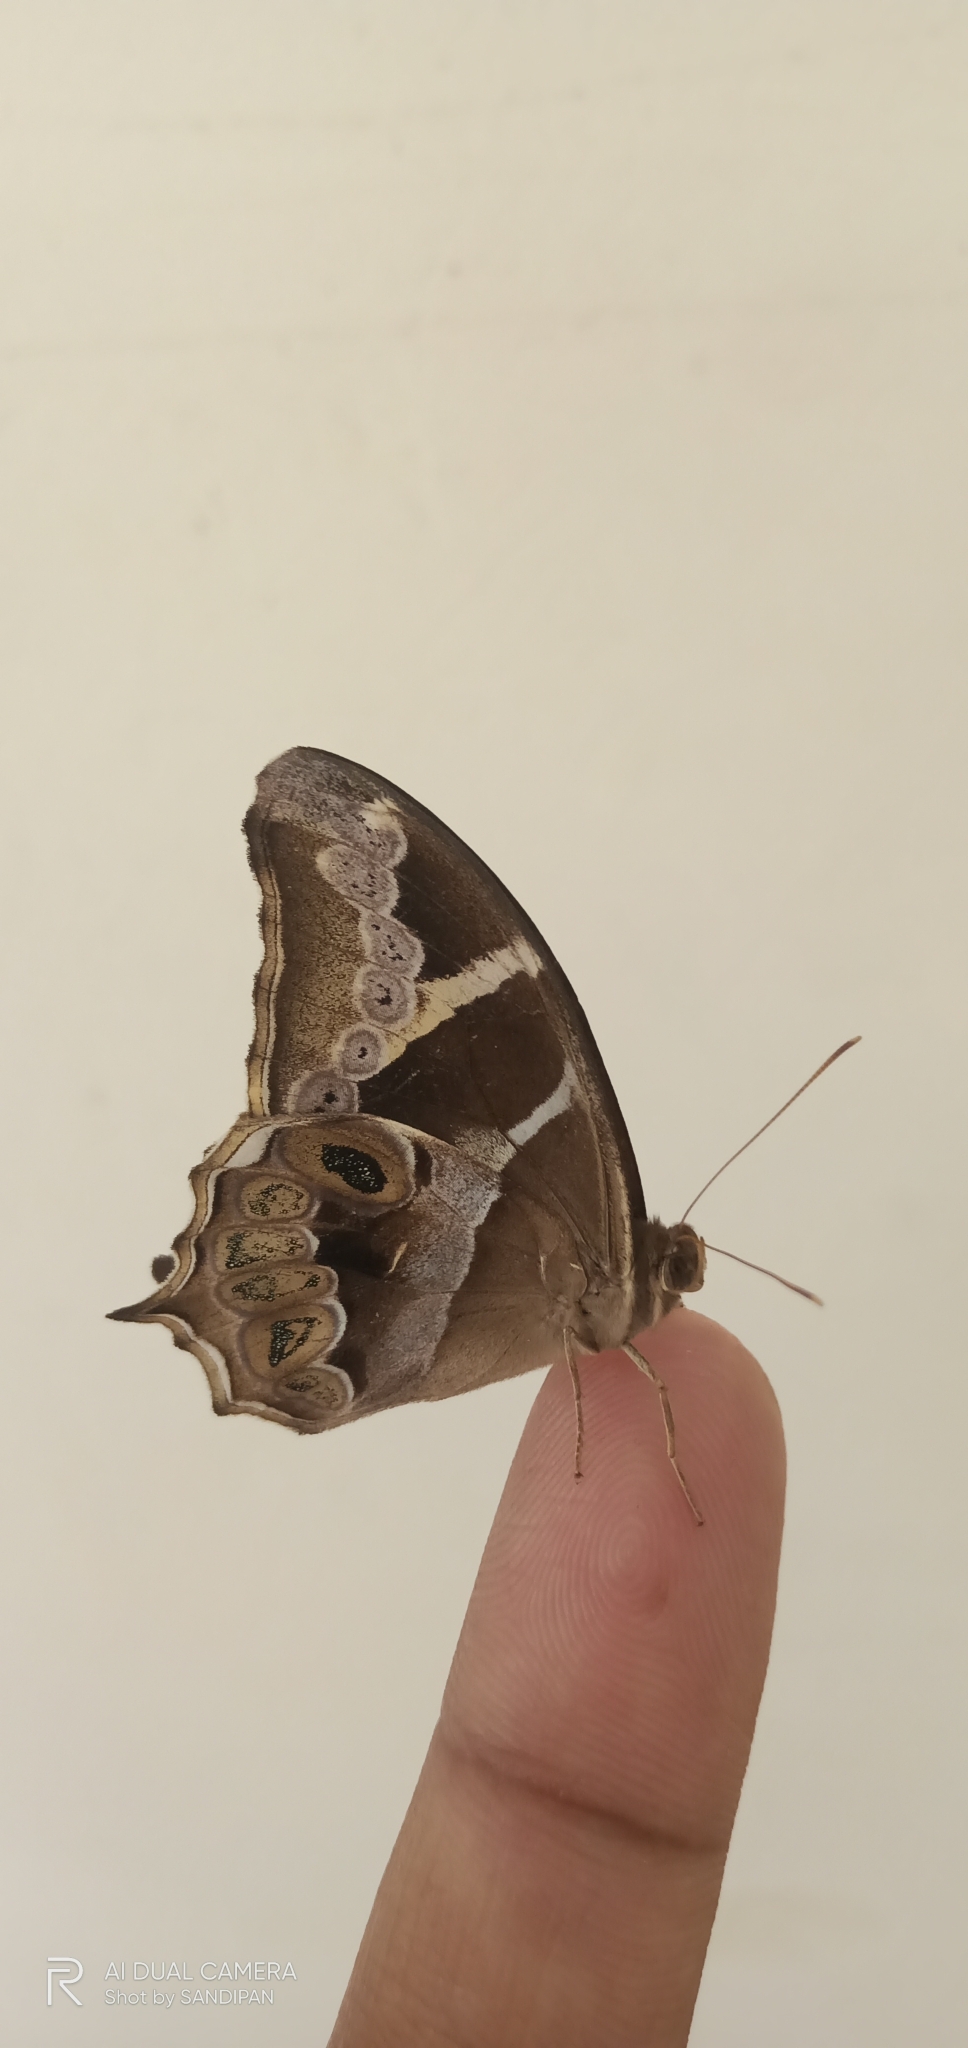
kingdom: Animalia
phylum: Arthropoda
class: Insecta
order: Lepidoptera
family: Nymphalidae
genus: Lethe
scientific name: Lethe europa
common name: Bamboo treebrown
